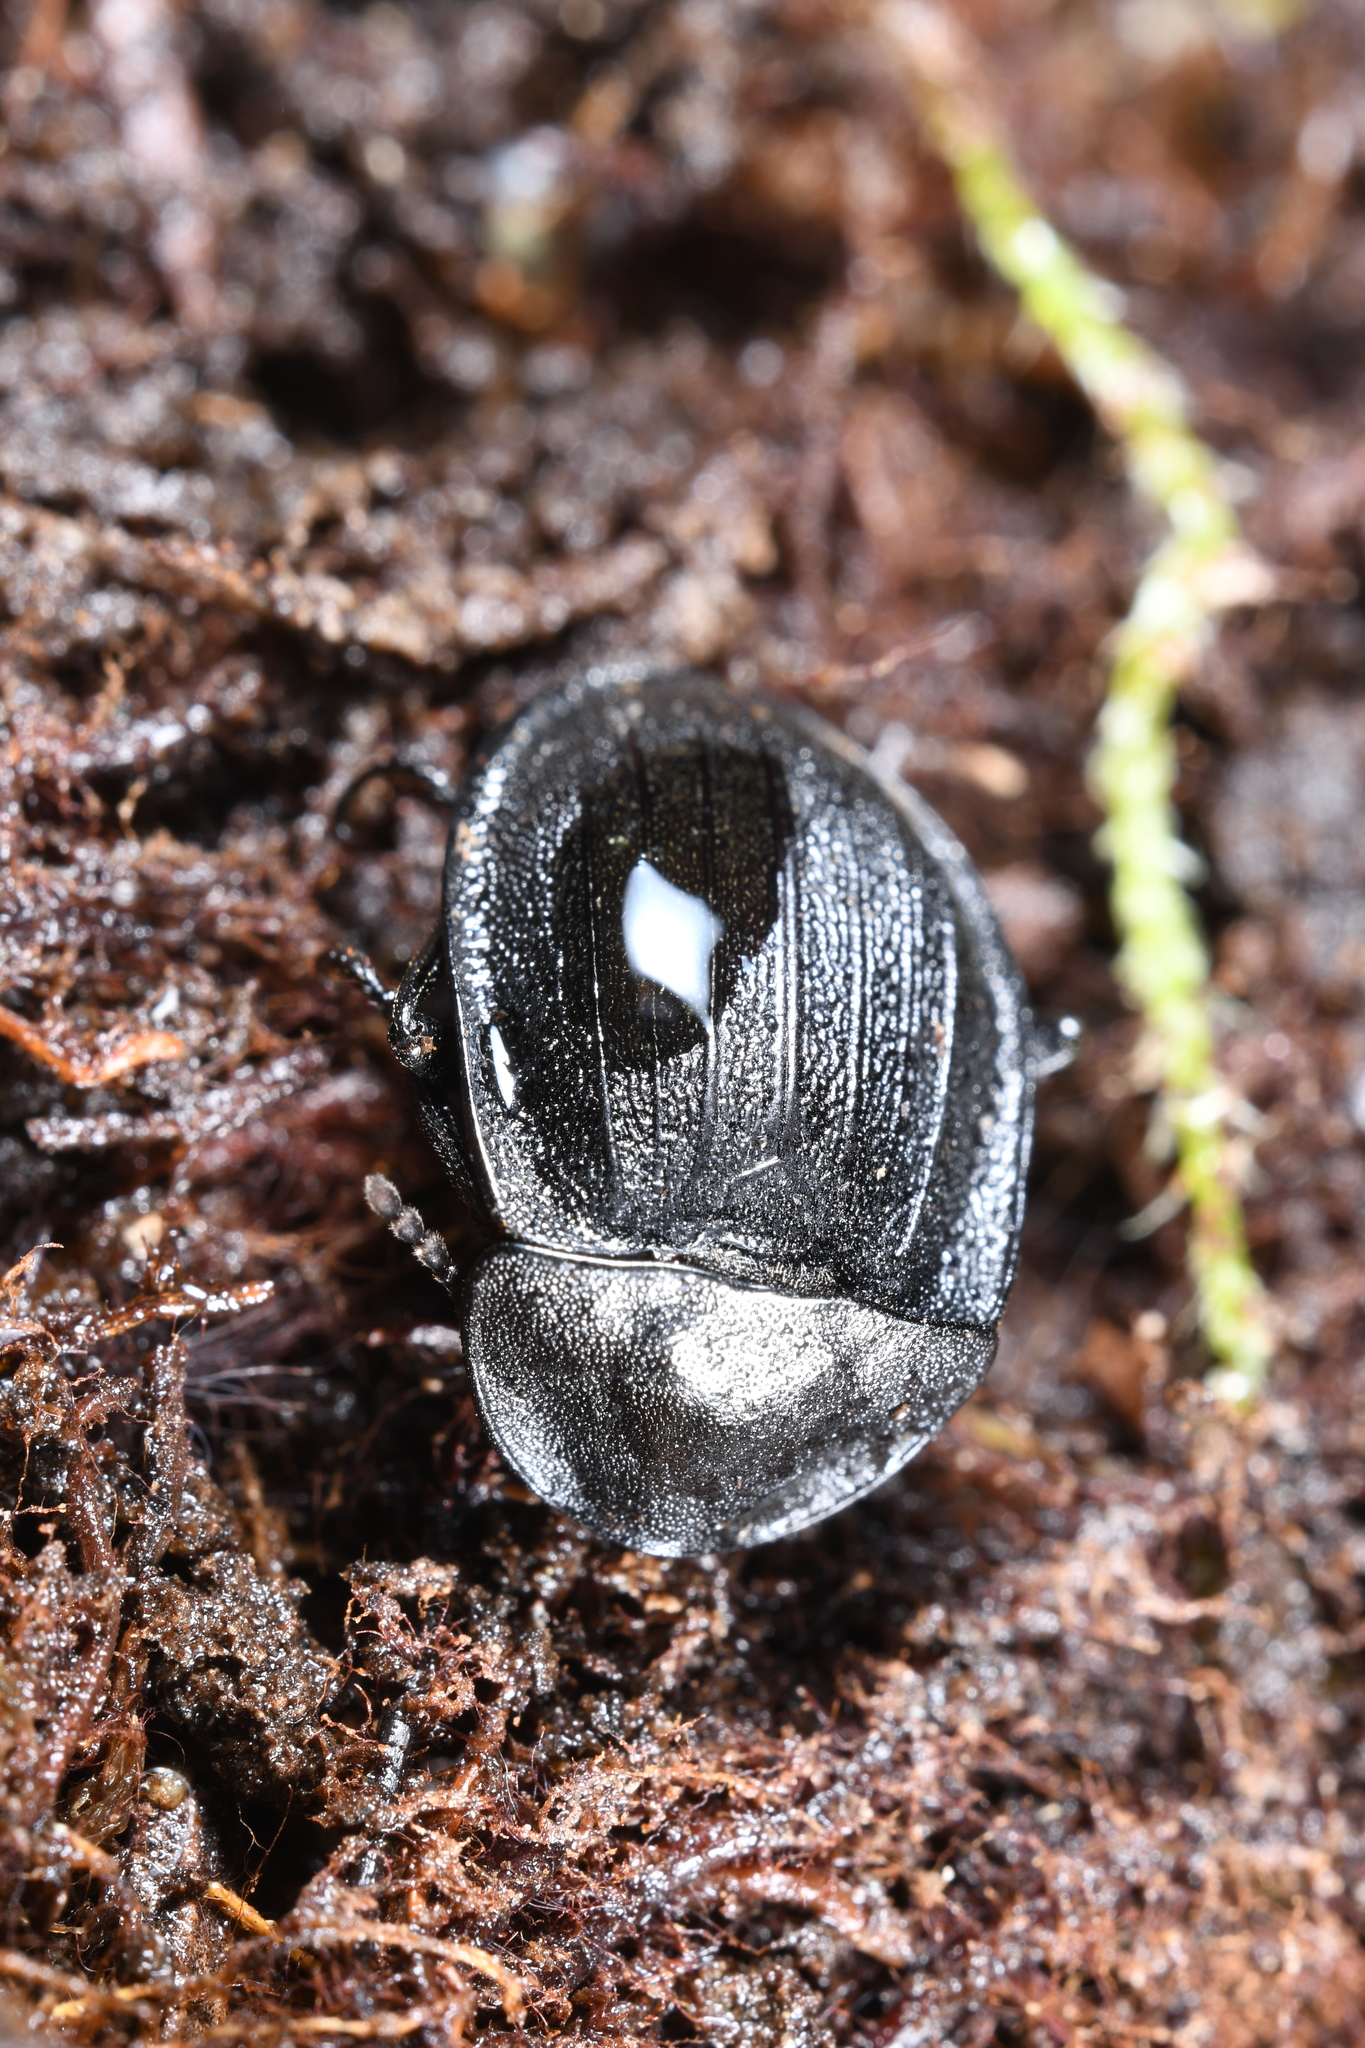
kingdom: Animalia
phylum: Arthropoda
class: Insecta
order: Coleoptera
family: Staphylinidae
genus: Silpha
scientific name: Silpha atrata
